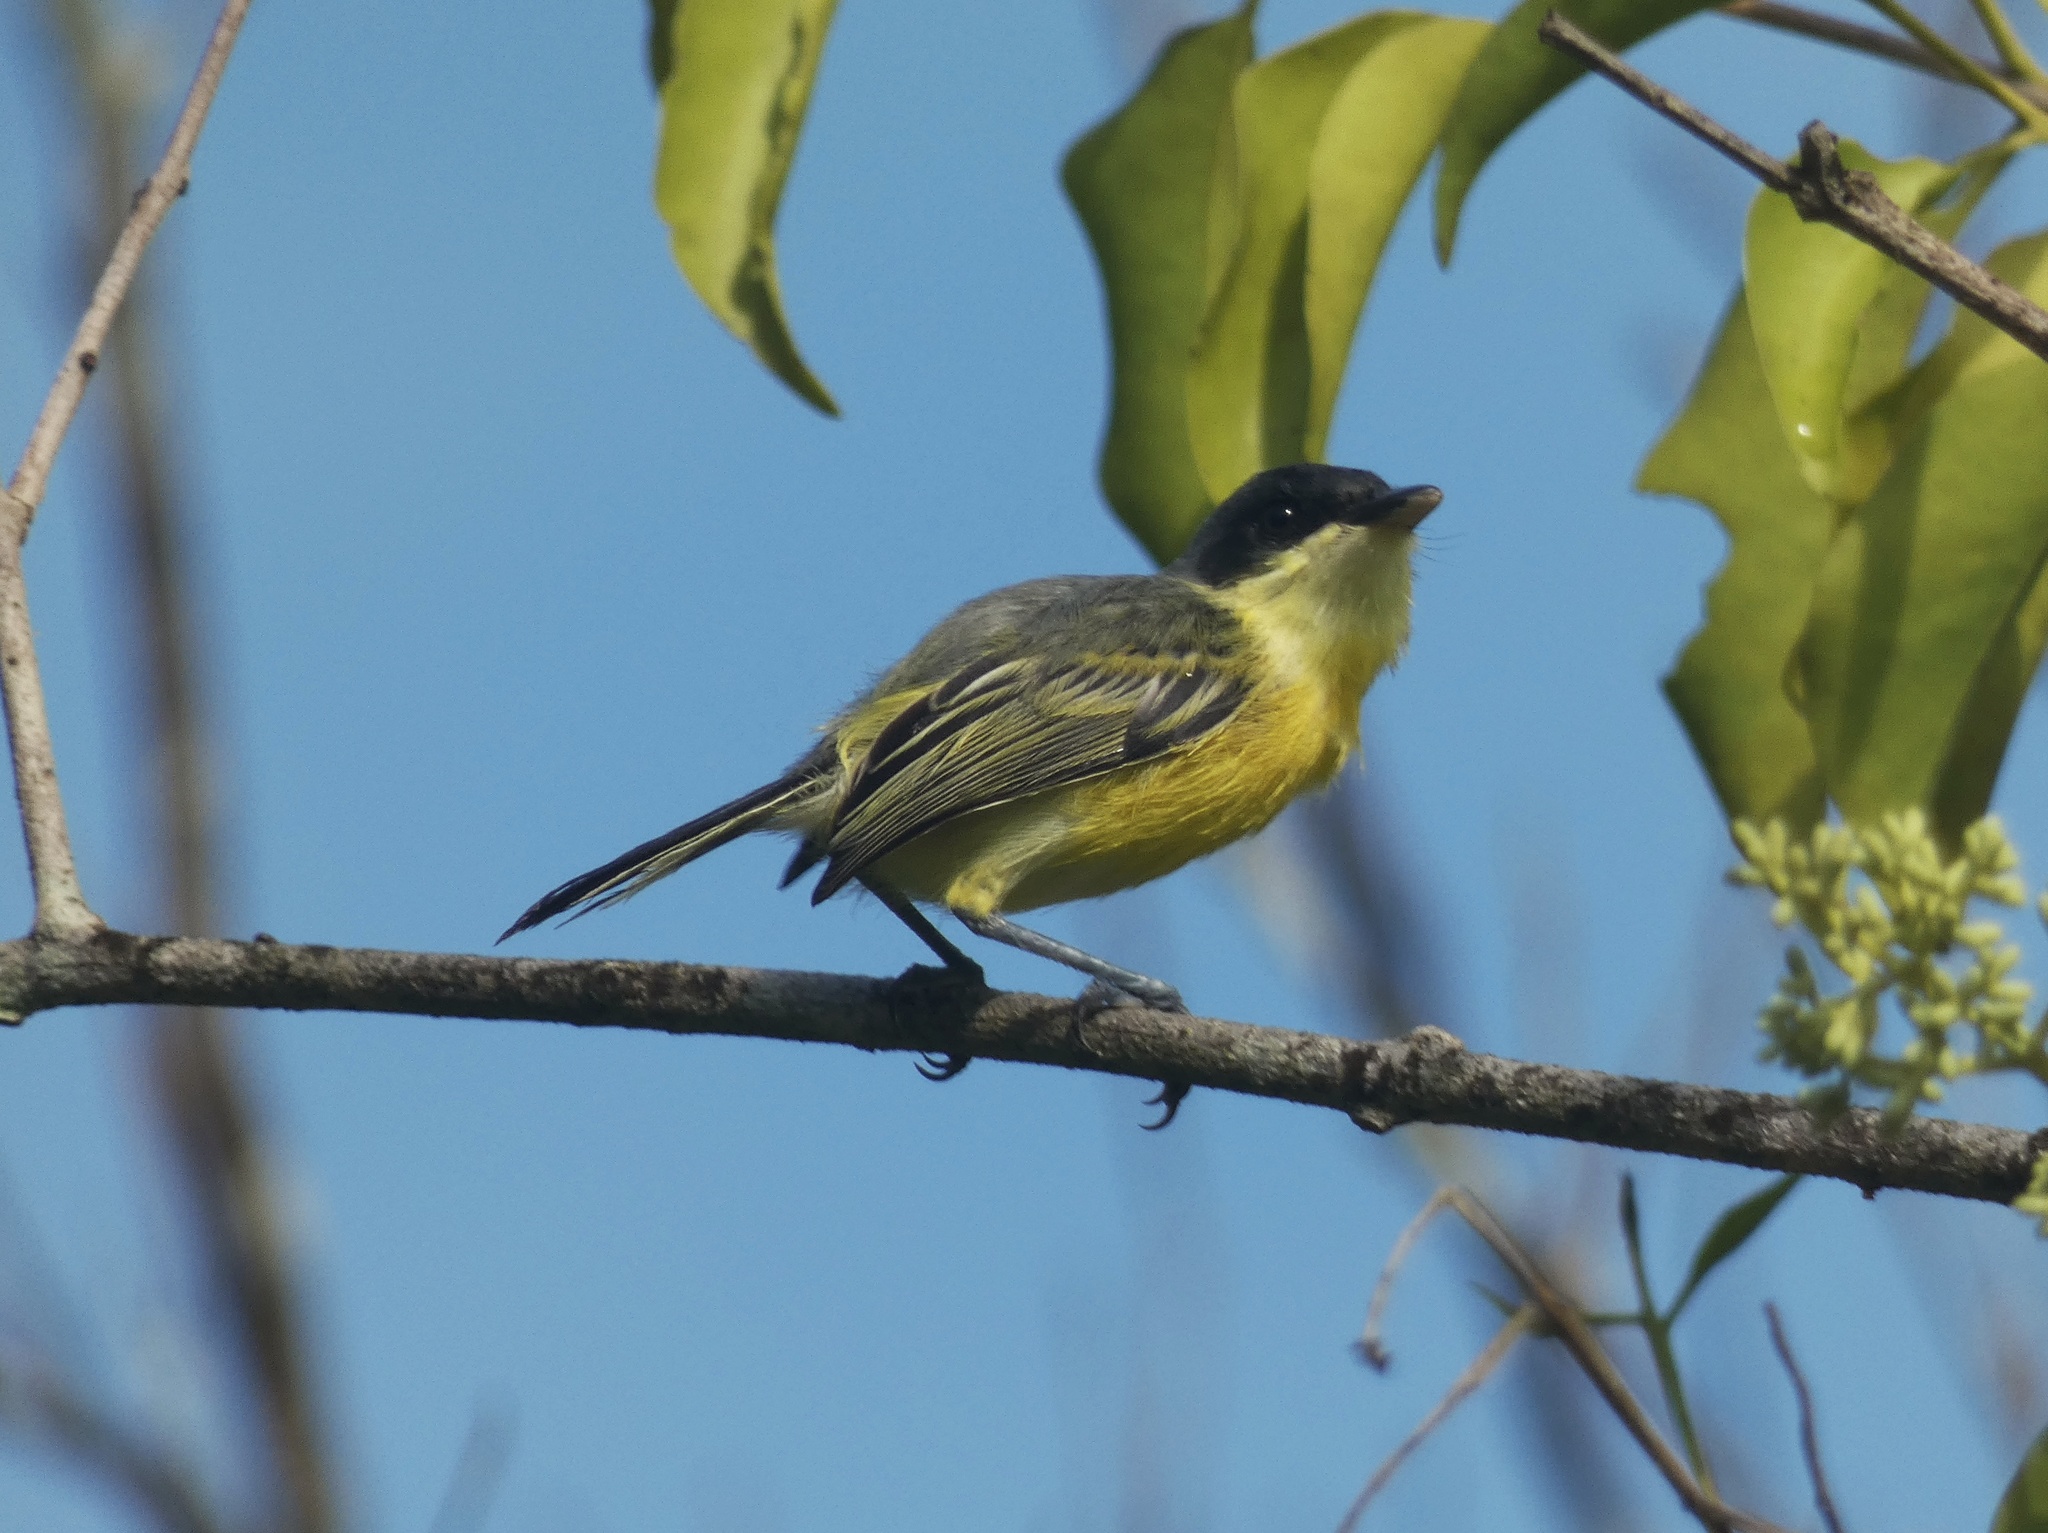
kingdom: Animalia
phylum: Chordata
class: Aves
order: Passeriformes
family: Tyrannidae
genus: Todirostrum
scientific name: Todirostrum nigriceps
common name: Black-headed tody-flycatcher
